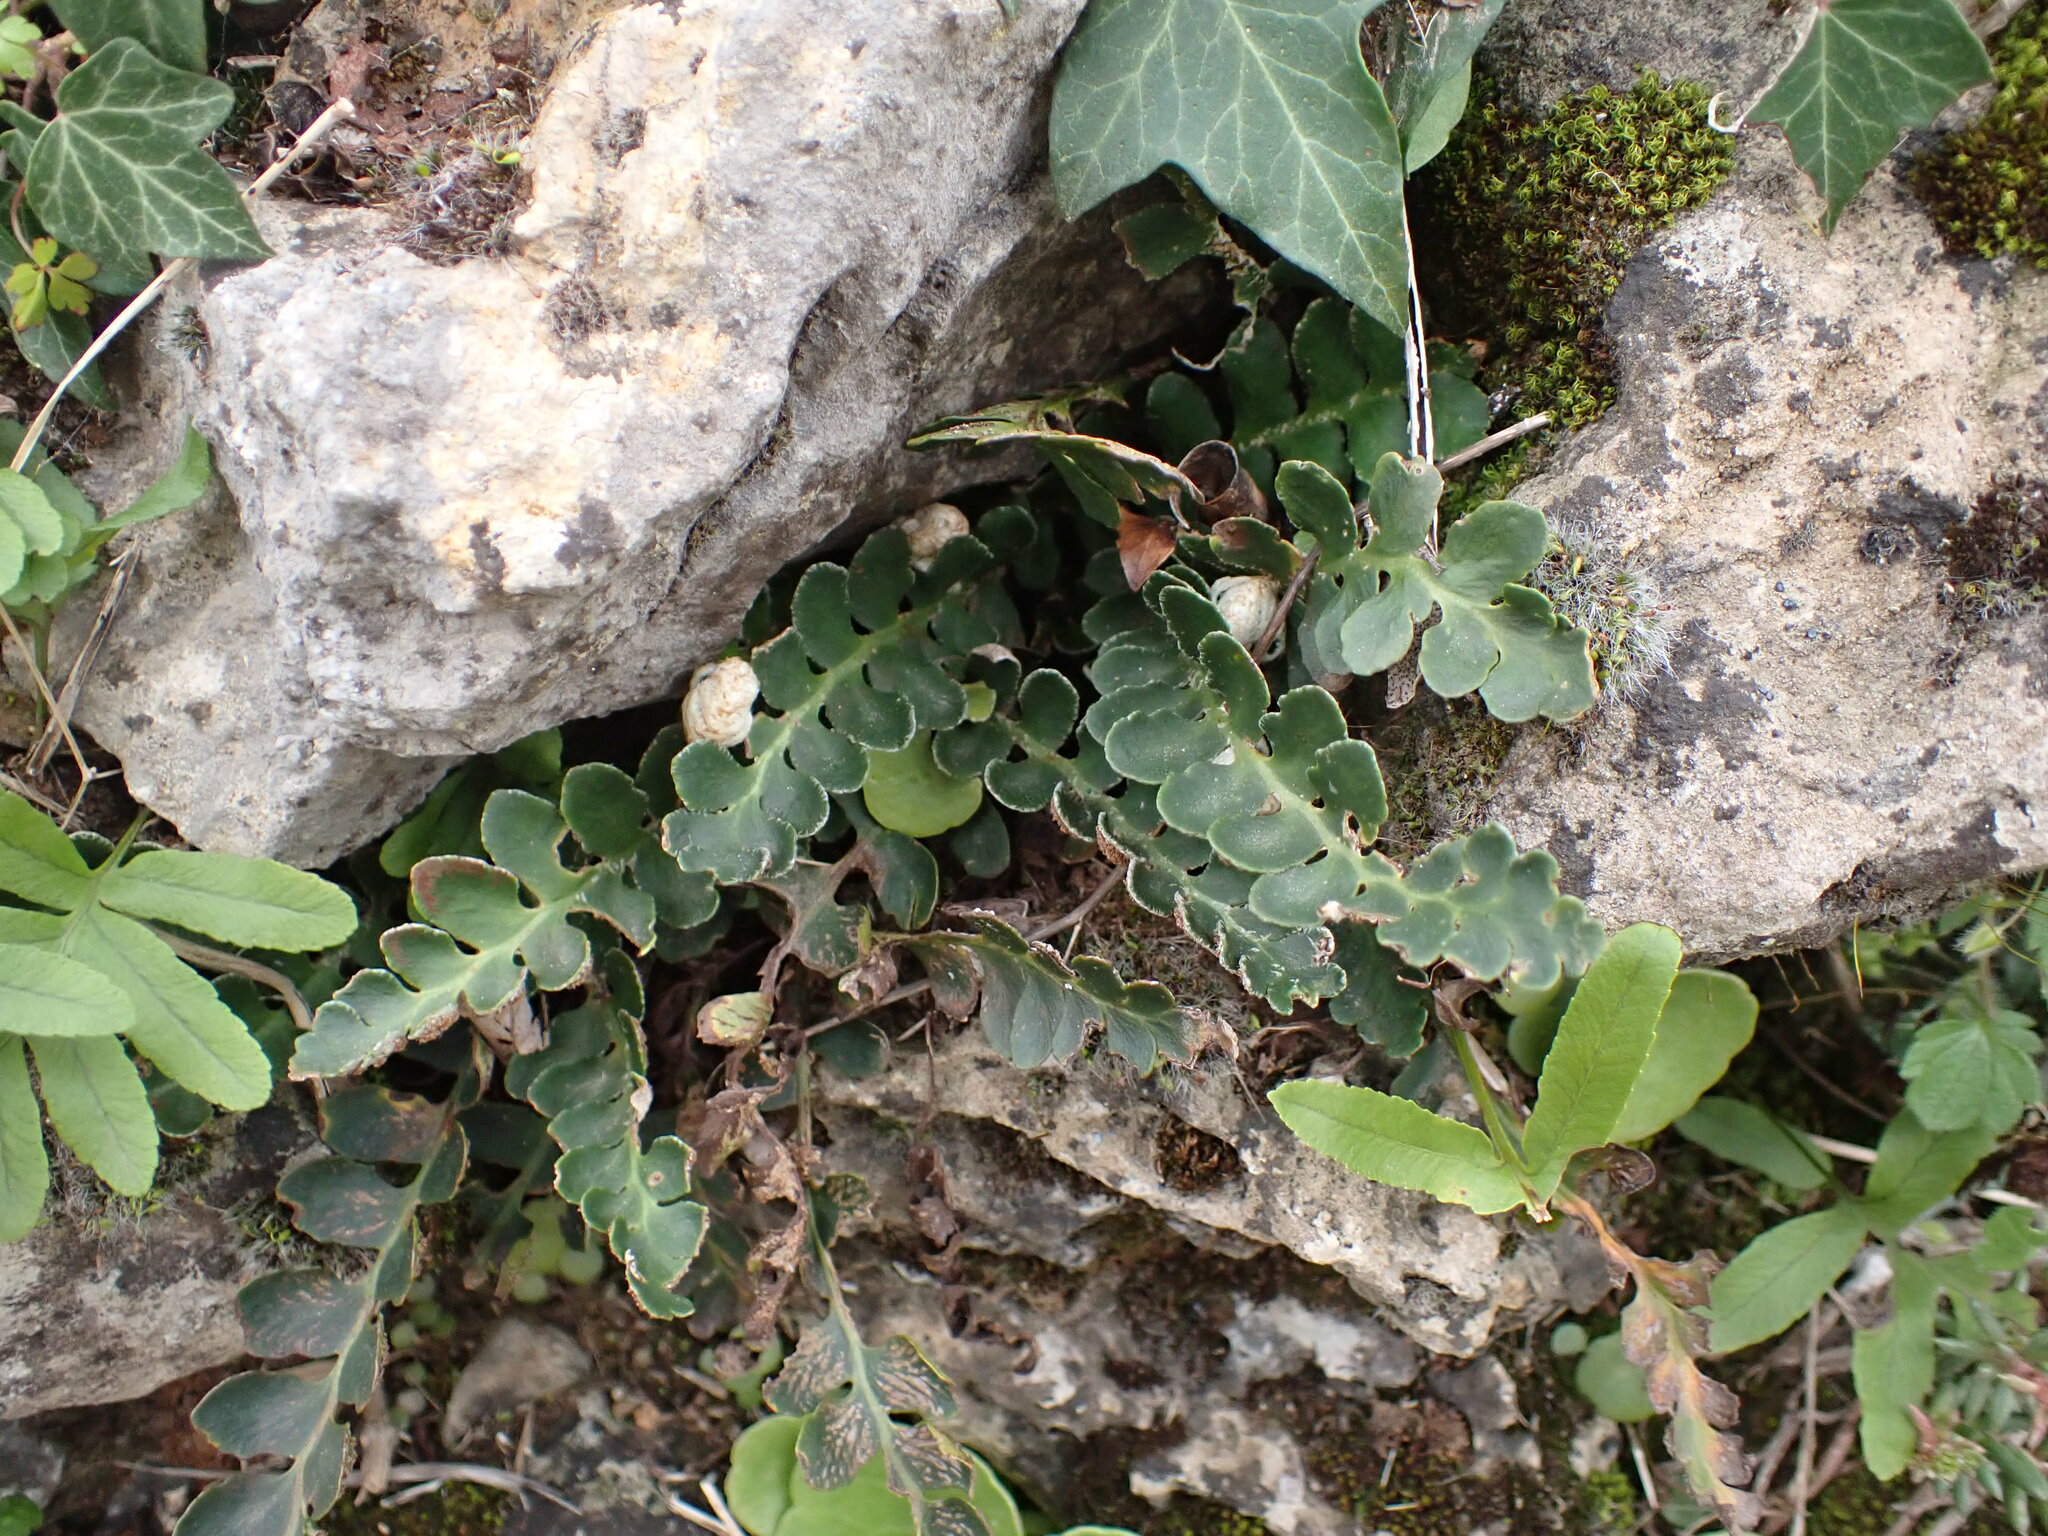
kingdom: Plantae
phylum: Tracheophyta
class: Polypodiopsida
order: Polypodiales
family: Aspleniaceae
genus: Asplenium
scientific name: Asplenium ceterach
